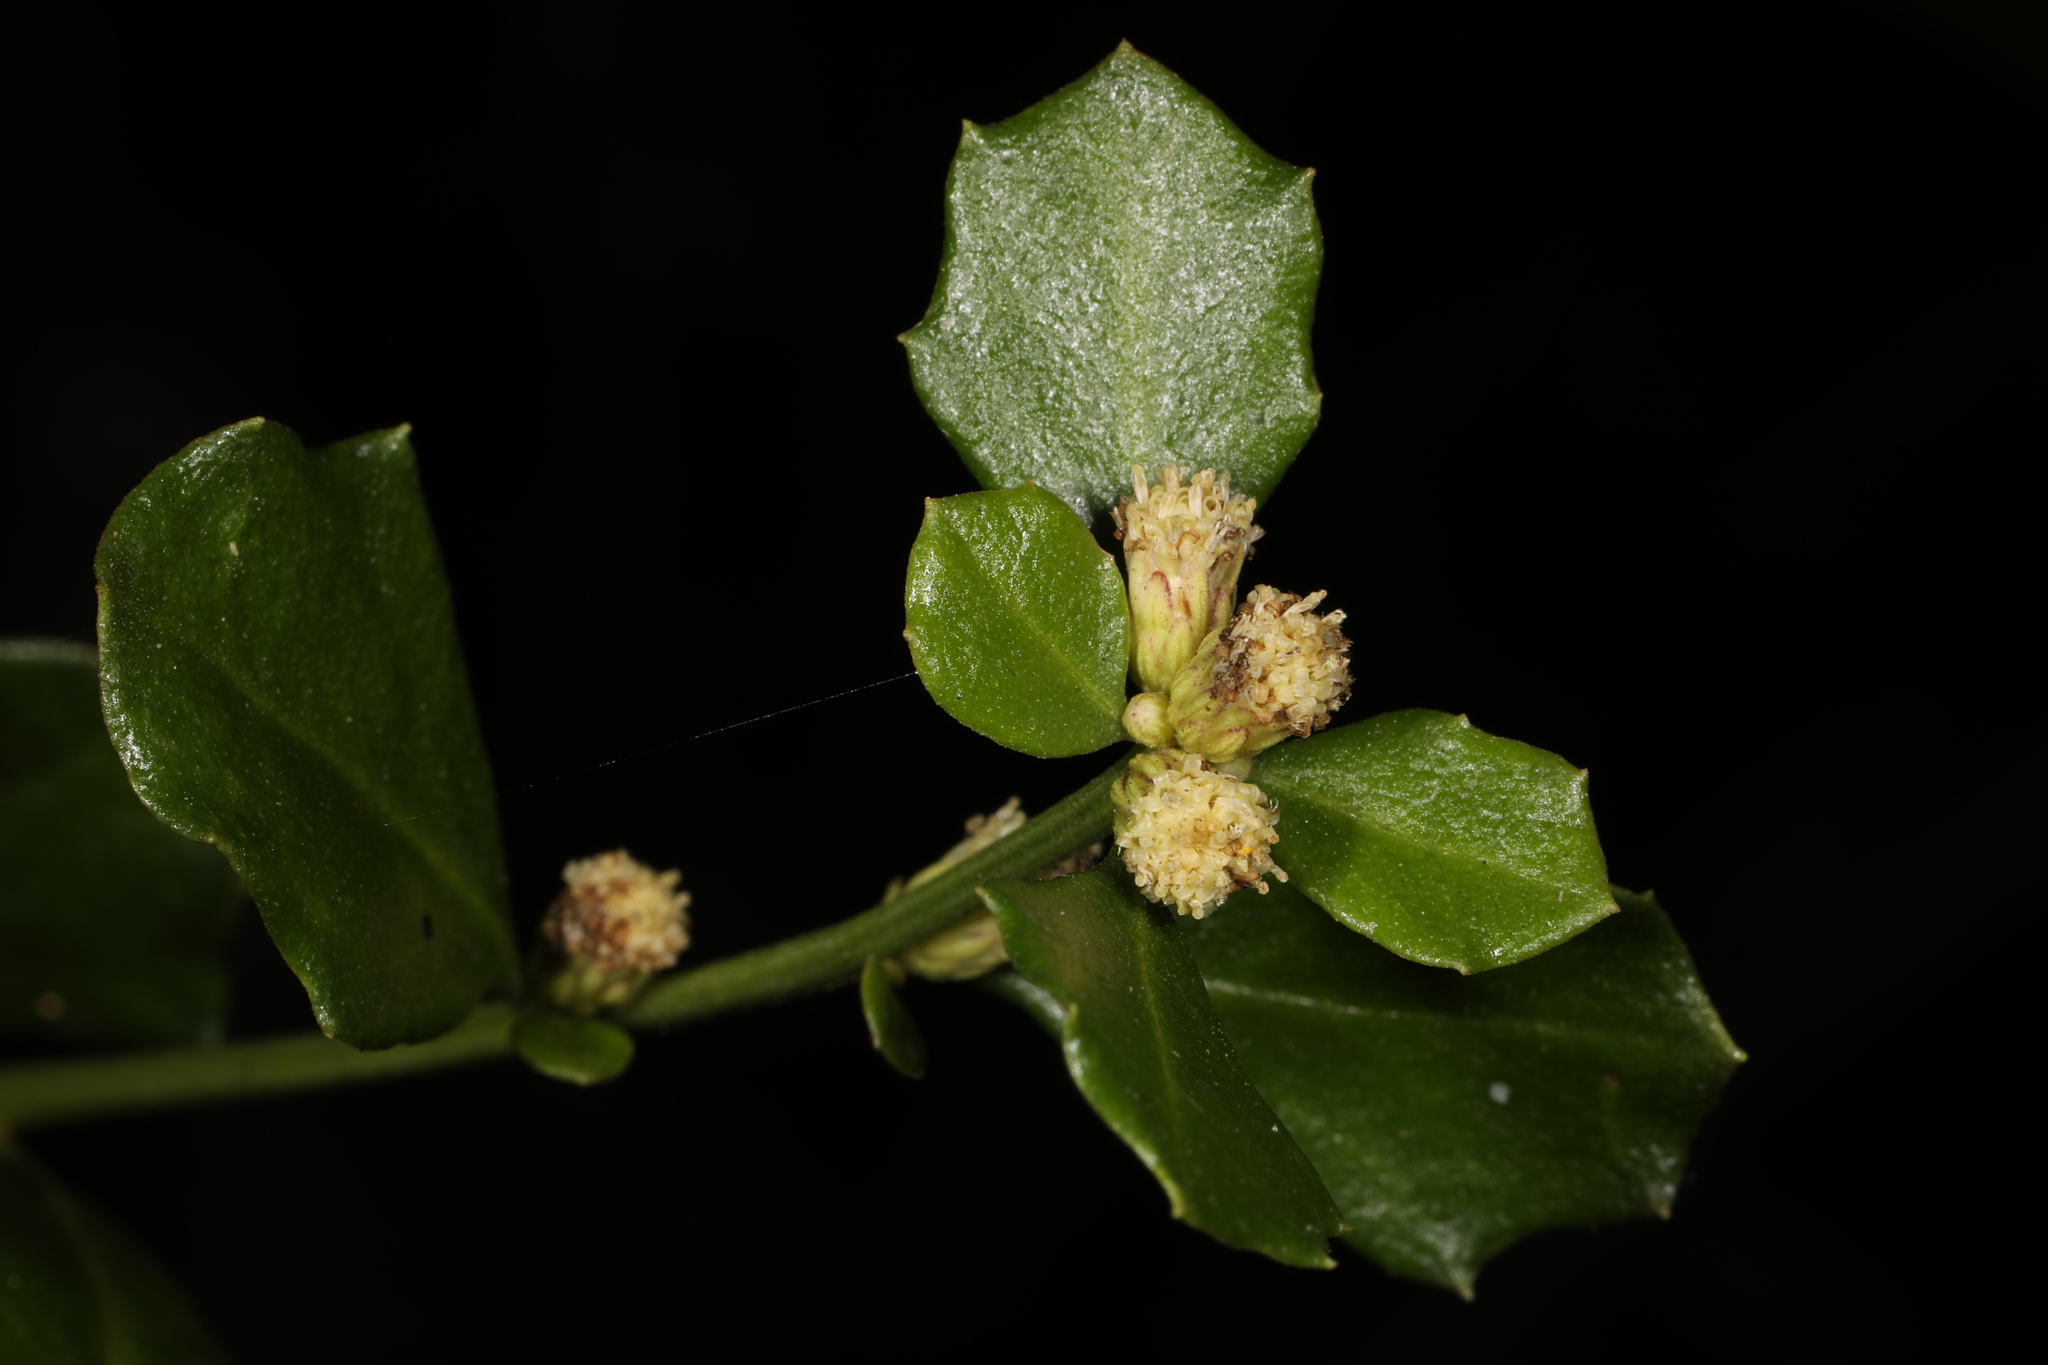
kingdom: Plantae
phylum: Tracheophyta
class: Magnoliopsida
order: Asterales
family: Asteraceae
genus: Baccharis
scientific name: Baccharis glomeruliflora
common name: Silverling groundsel bush
